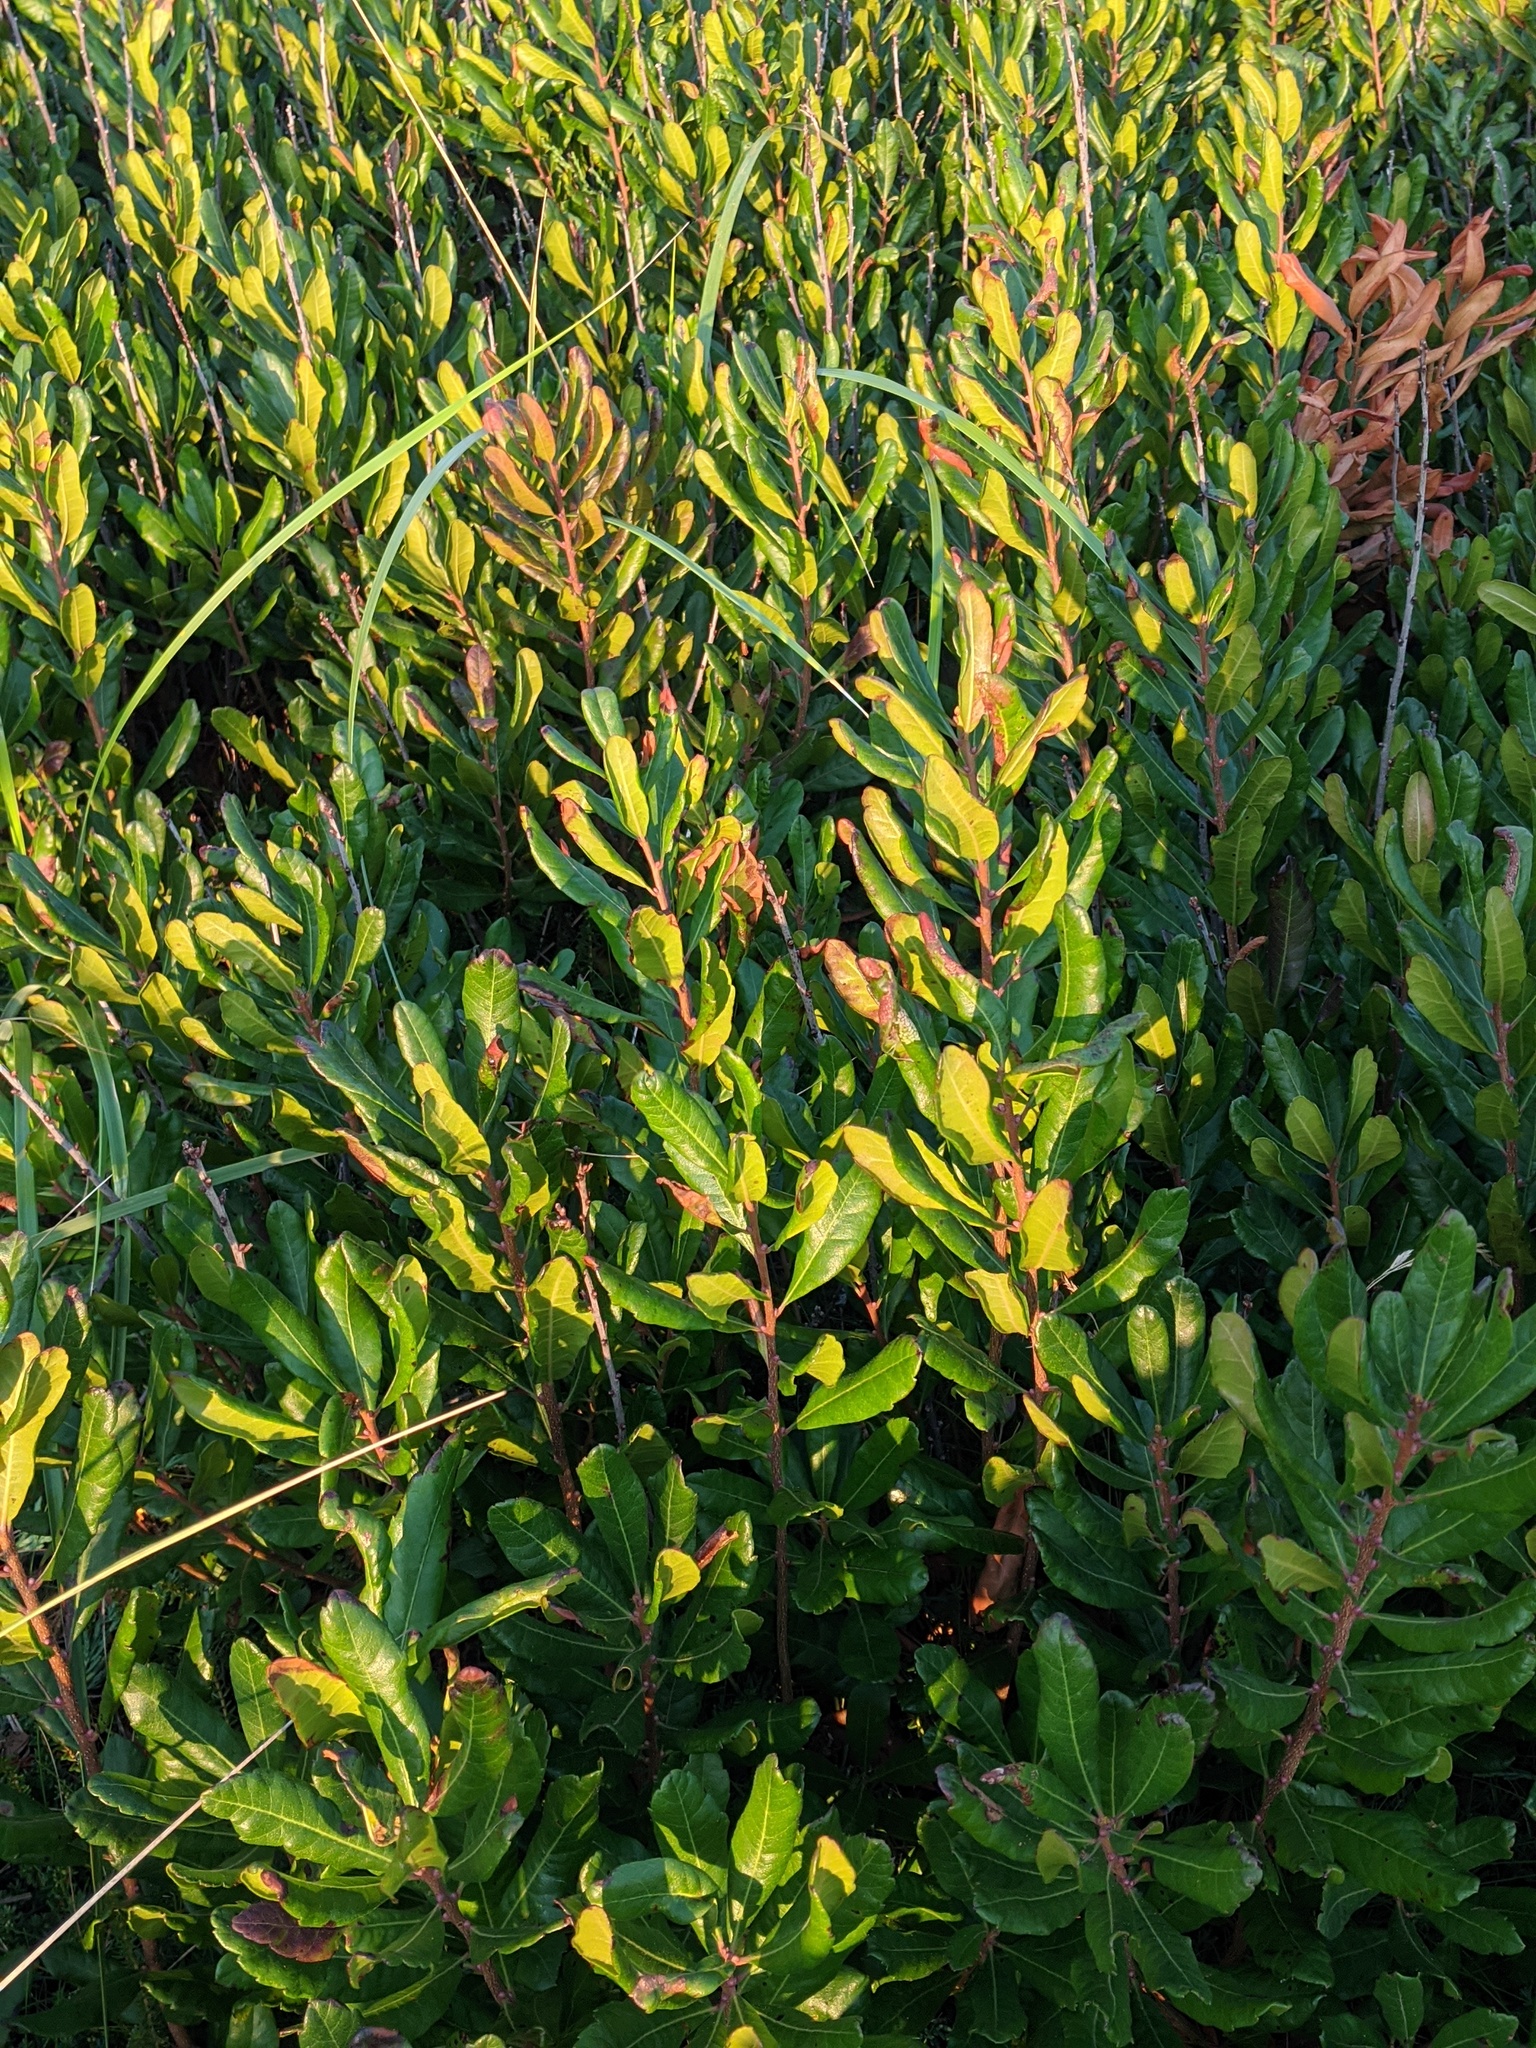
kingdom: Plantae
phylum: Tracheophyta
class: Magnoliopsida
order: Fagales
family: Myricaceae
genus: Morella
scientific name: Morella pensylvanica
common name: Northern bayberry
